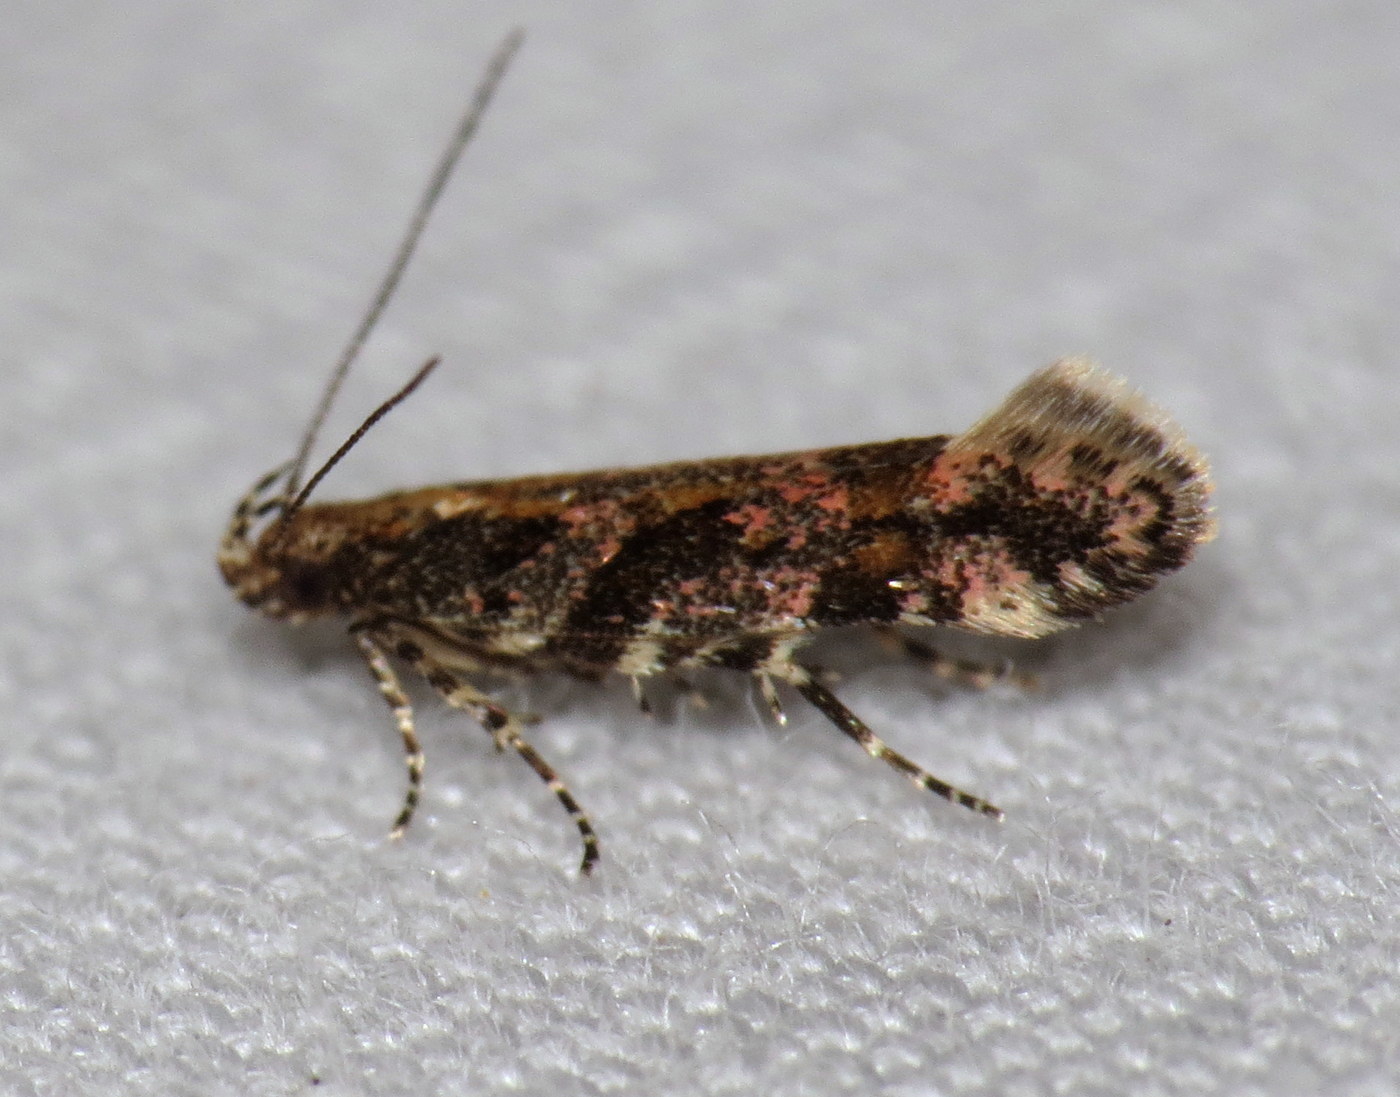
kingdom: Animalia
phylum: Arthropoda
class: Insecta
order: Lepidoptera
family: Gelechiidae
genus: Aristotelia
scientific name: Aristotelia rubidella
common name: Ruby aristotelia moth
